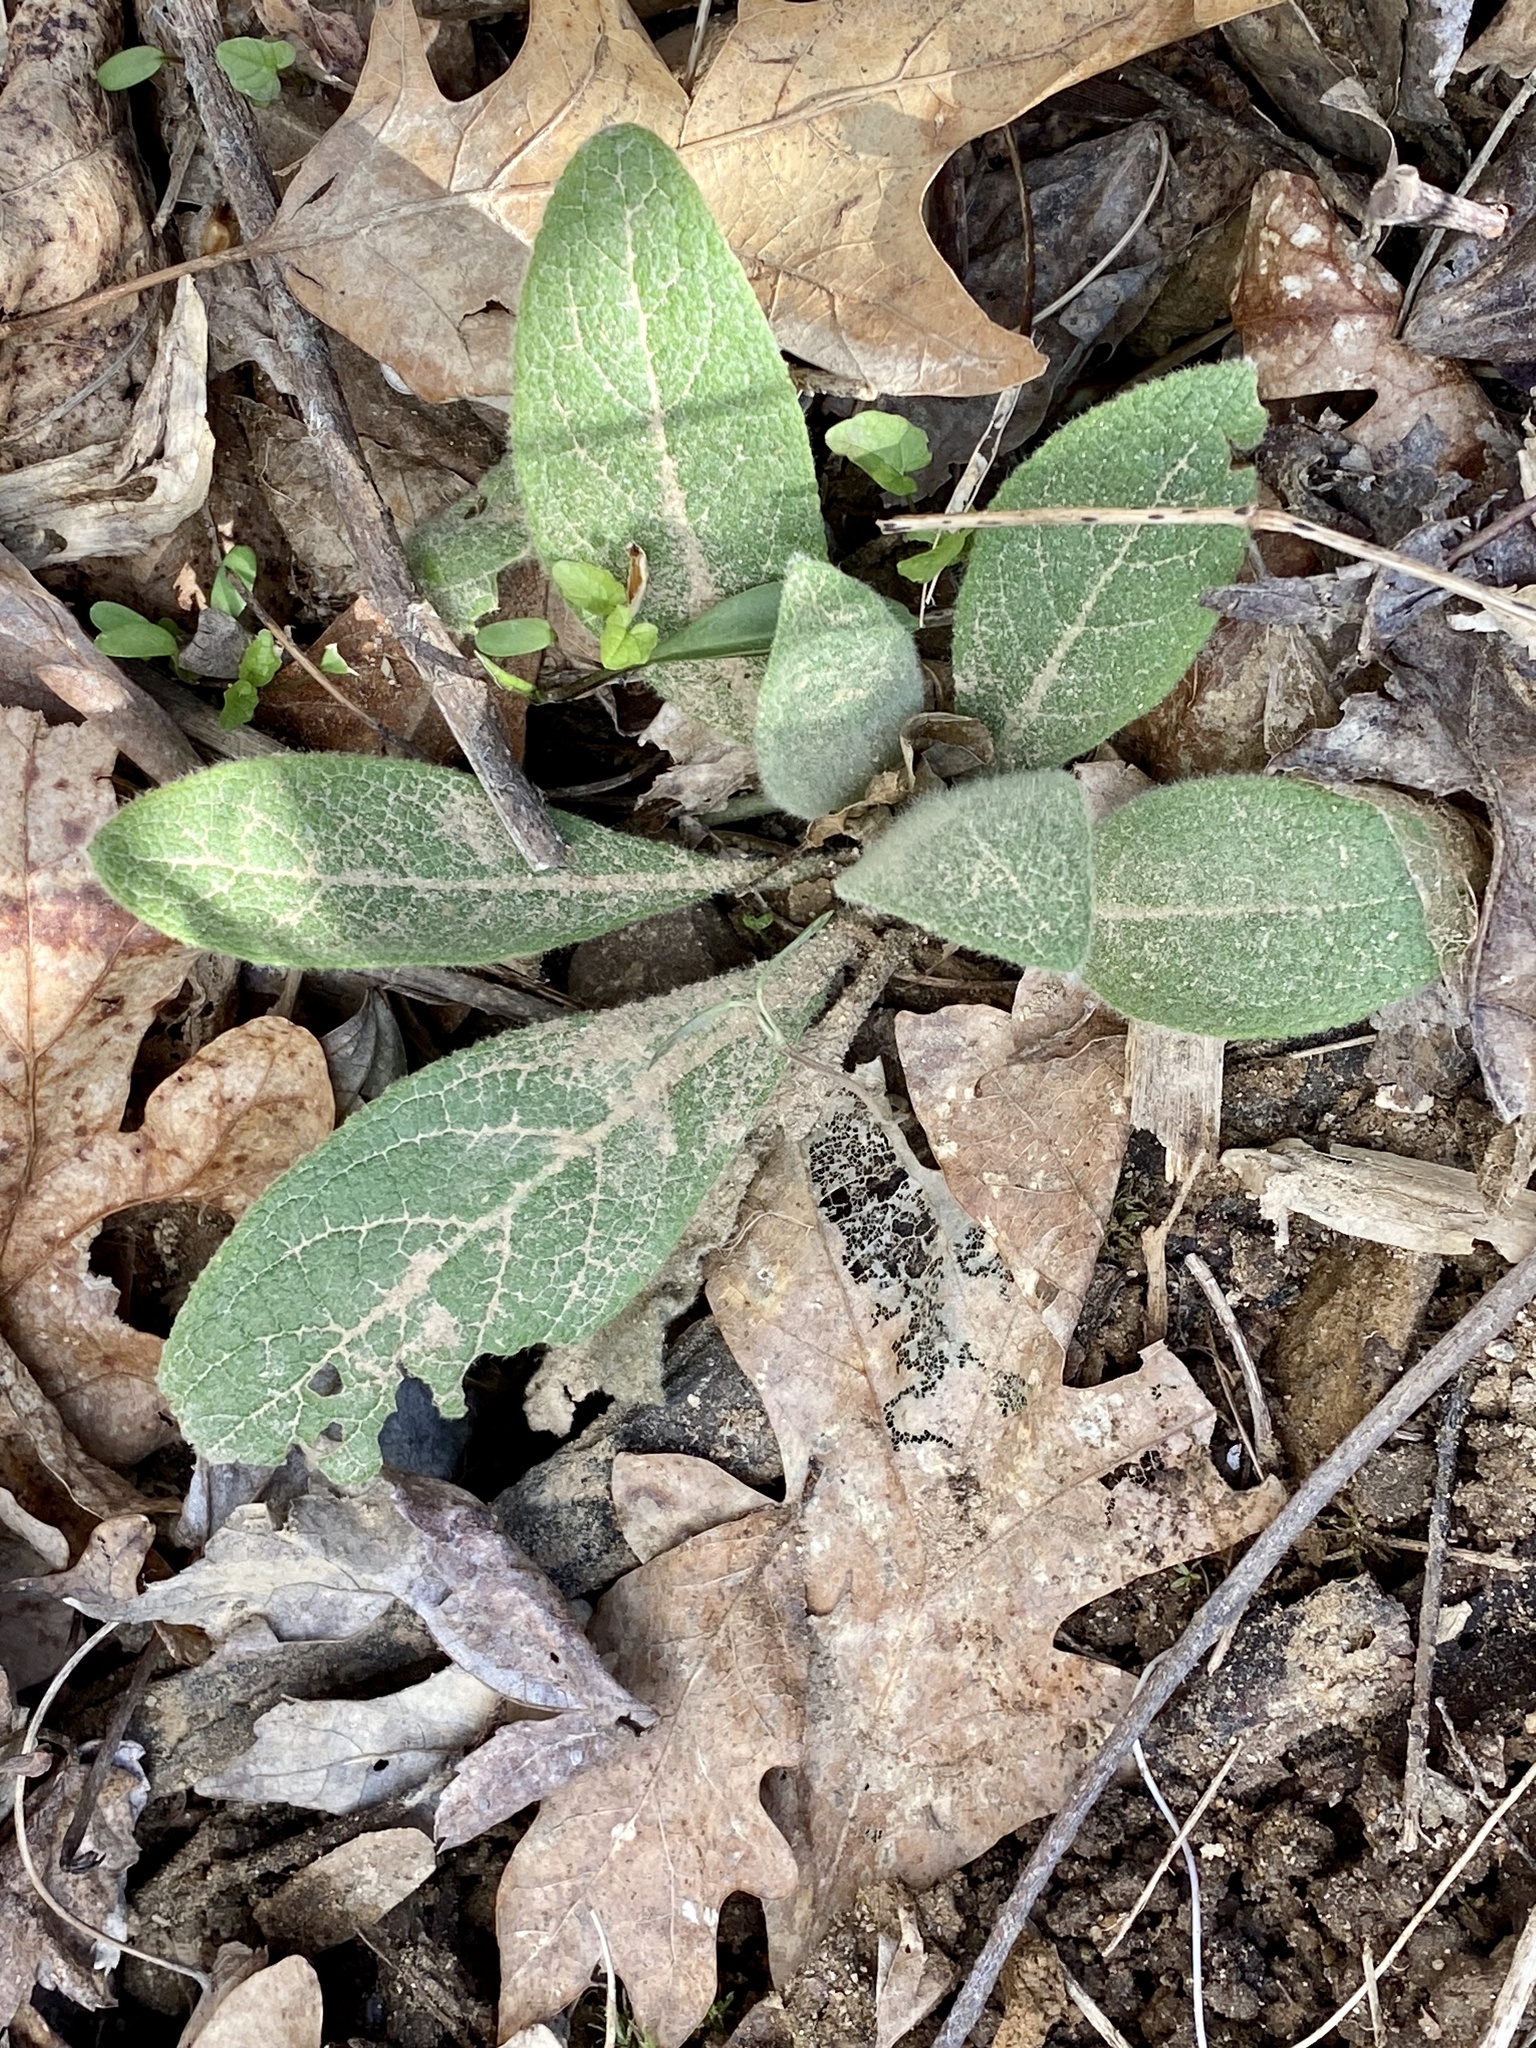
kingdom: Plantae
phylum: Tracheophyta
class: Magnoliopsida
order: Lamiales
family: Scrophulariaceae
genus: Verbascum
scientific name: Verbascum thapsus
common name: Common mullein
